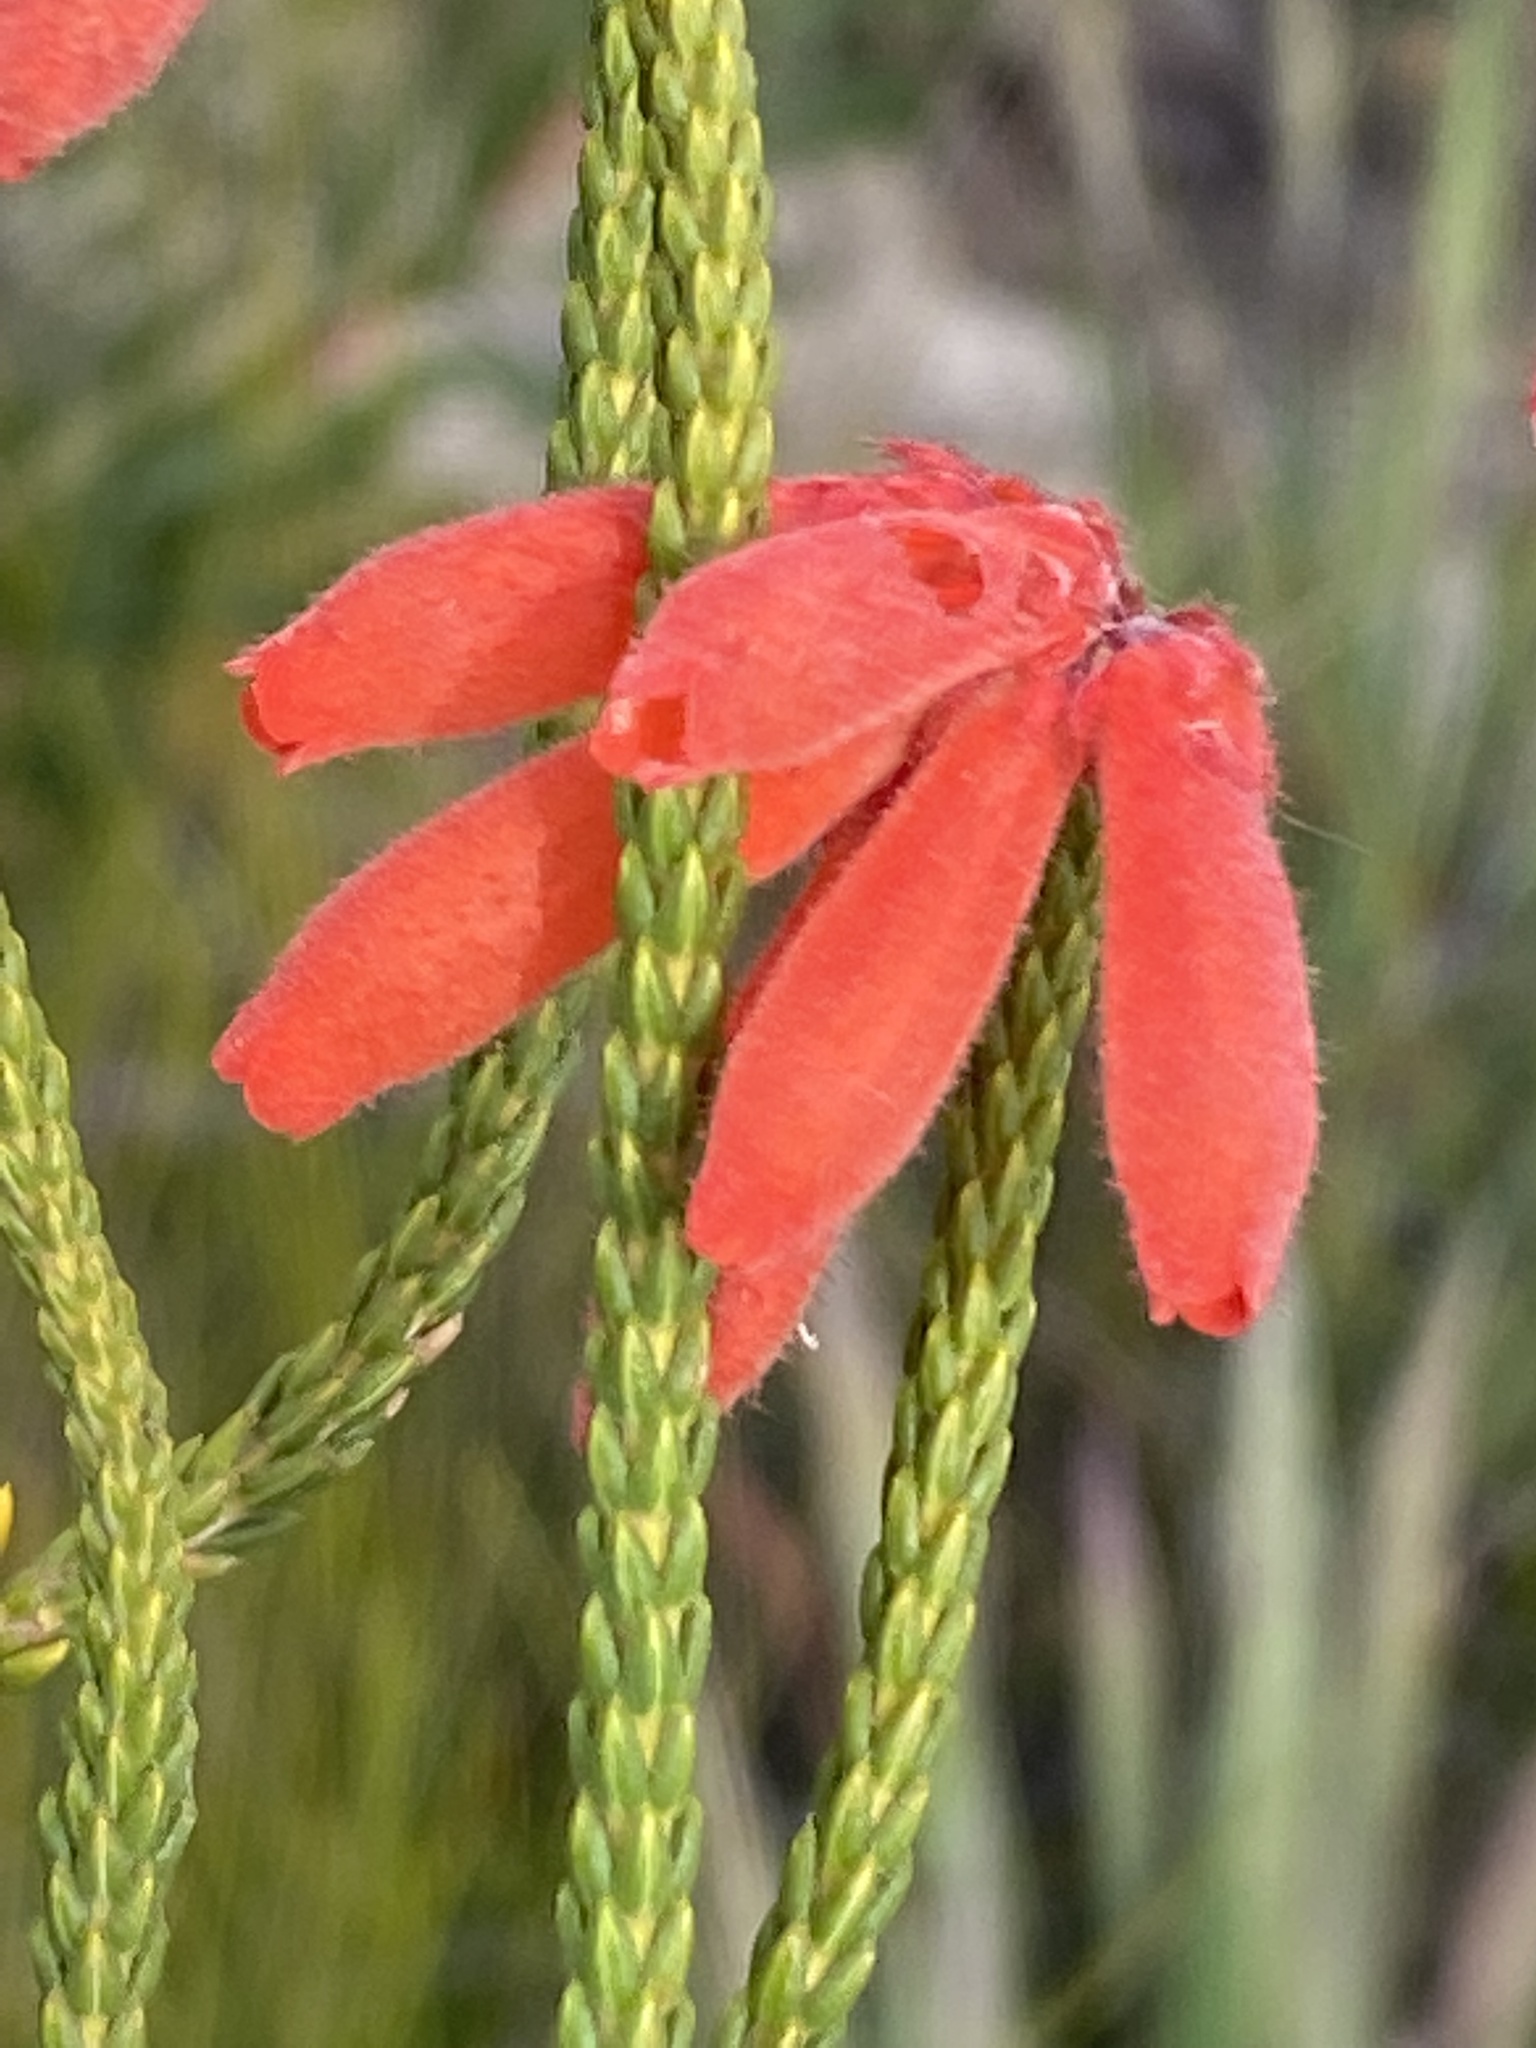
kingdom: Plantae
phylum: Tracheophyta
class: Magnoliopsida
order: Ericales
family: Ericaceae
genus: Erica
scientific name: Erica cerinthoides
